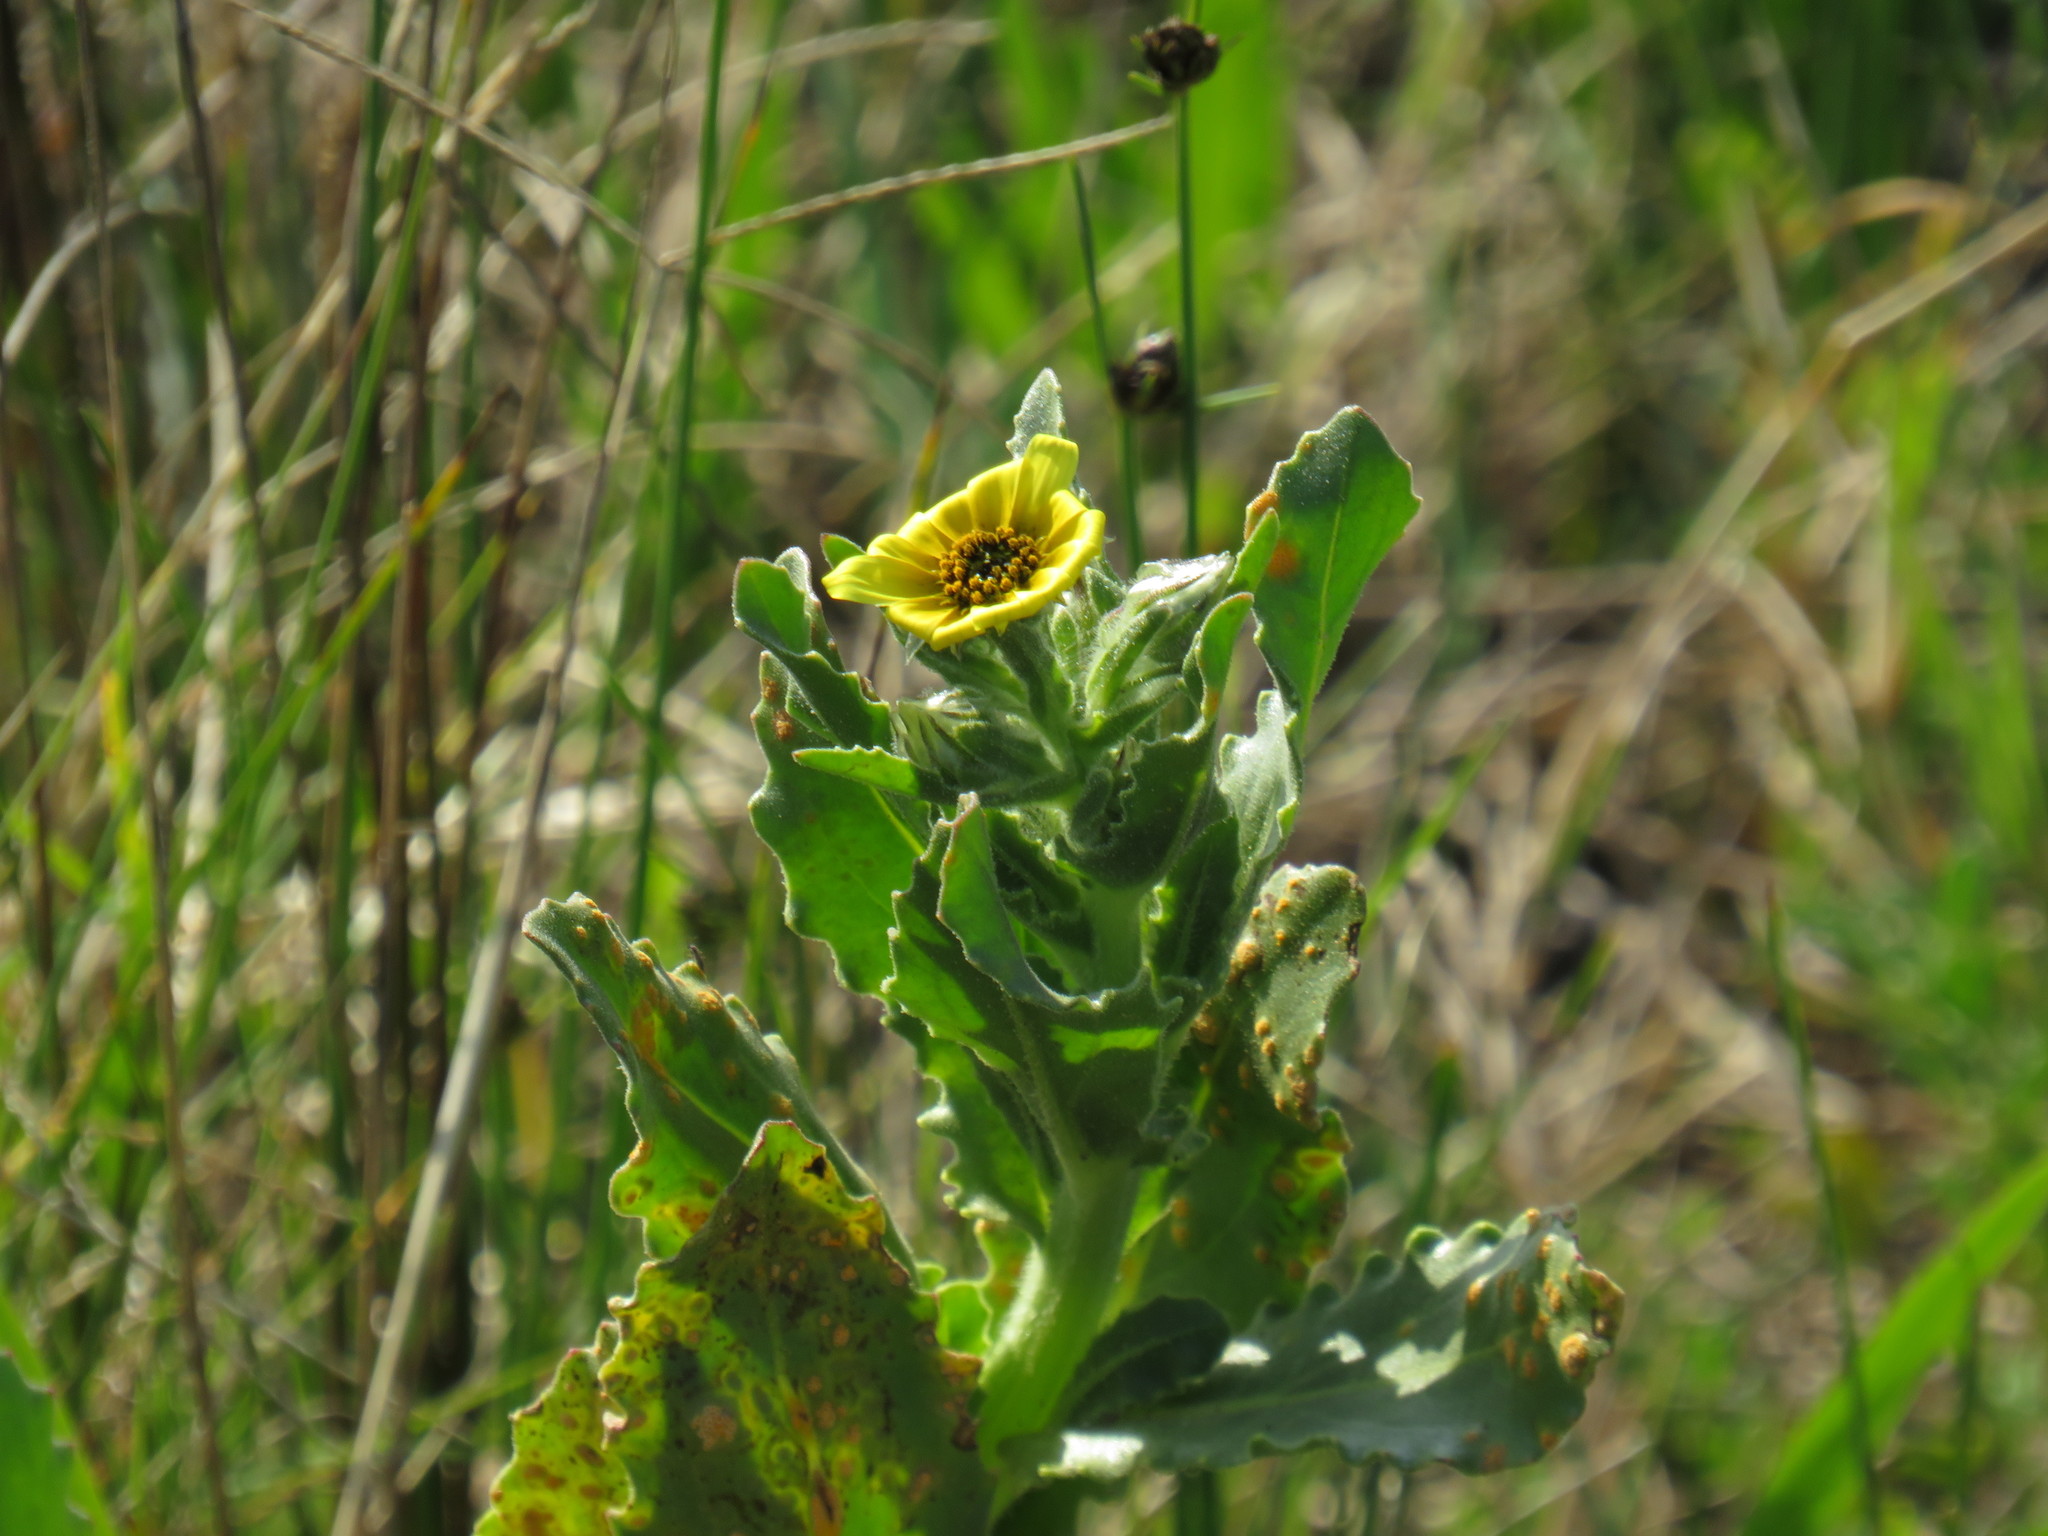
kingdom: Plantae
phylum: Tracheophyta
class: Magnoliopsida
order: Asterales
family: Asteraceae
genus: Osteospermum
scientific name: Osteospermum monstrosum
